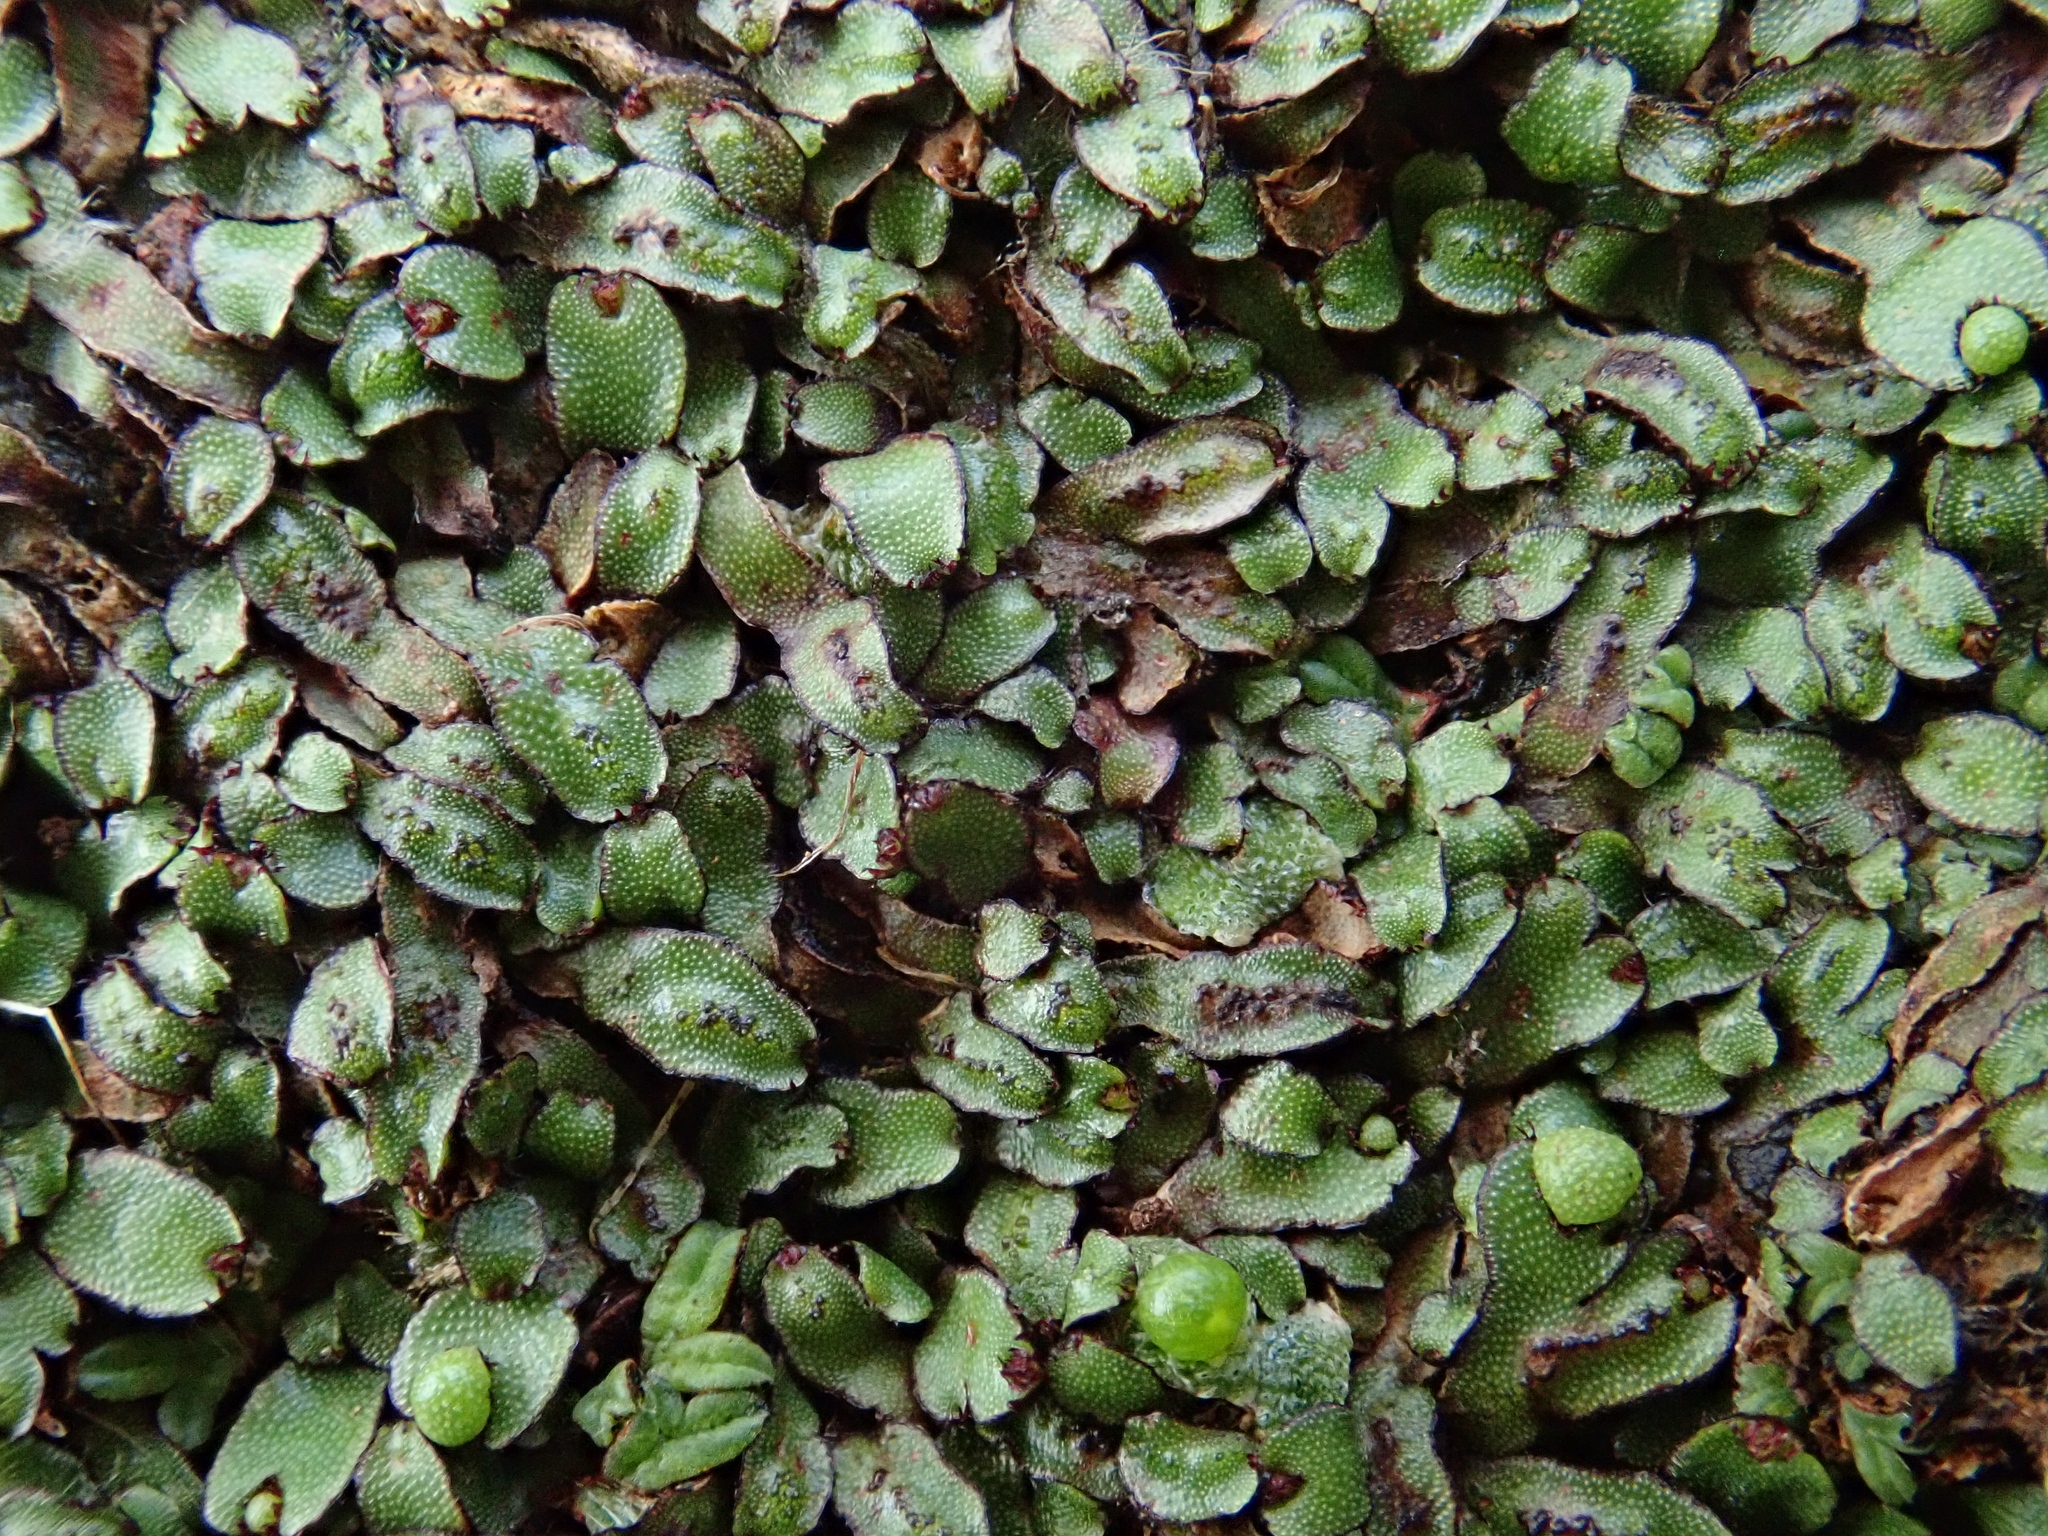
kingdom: Plantae
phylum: Marchantiophyta
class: Marchantiopsida
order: Marchantiales
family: Aytoniaceae
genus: Mannia
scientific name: Mannia androgyna
